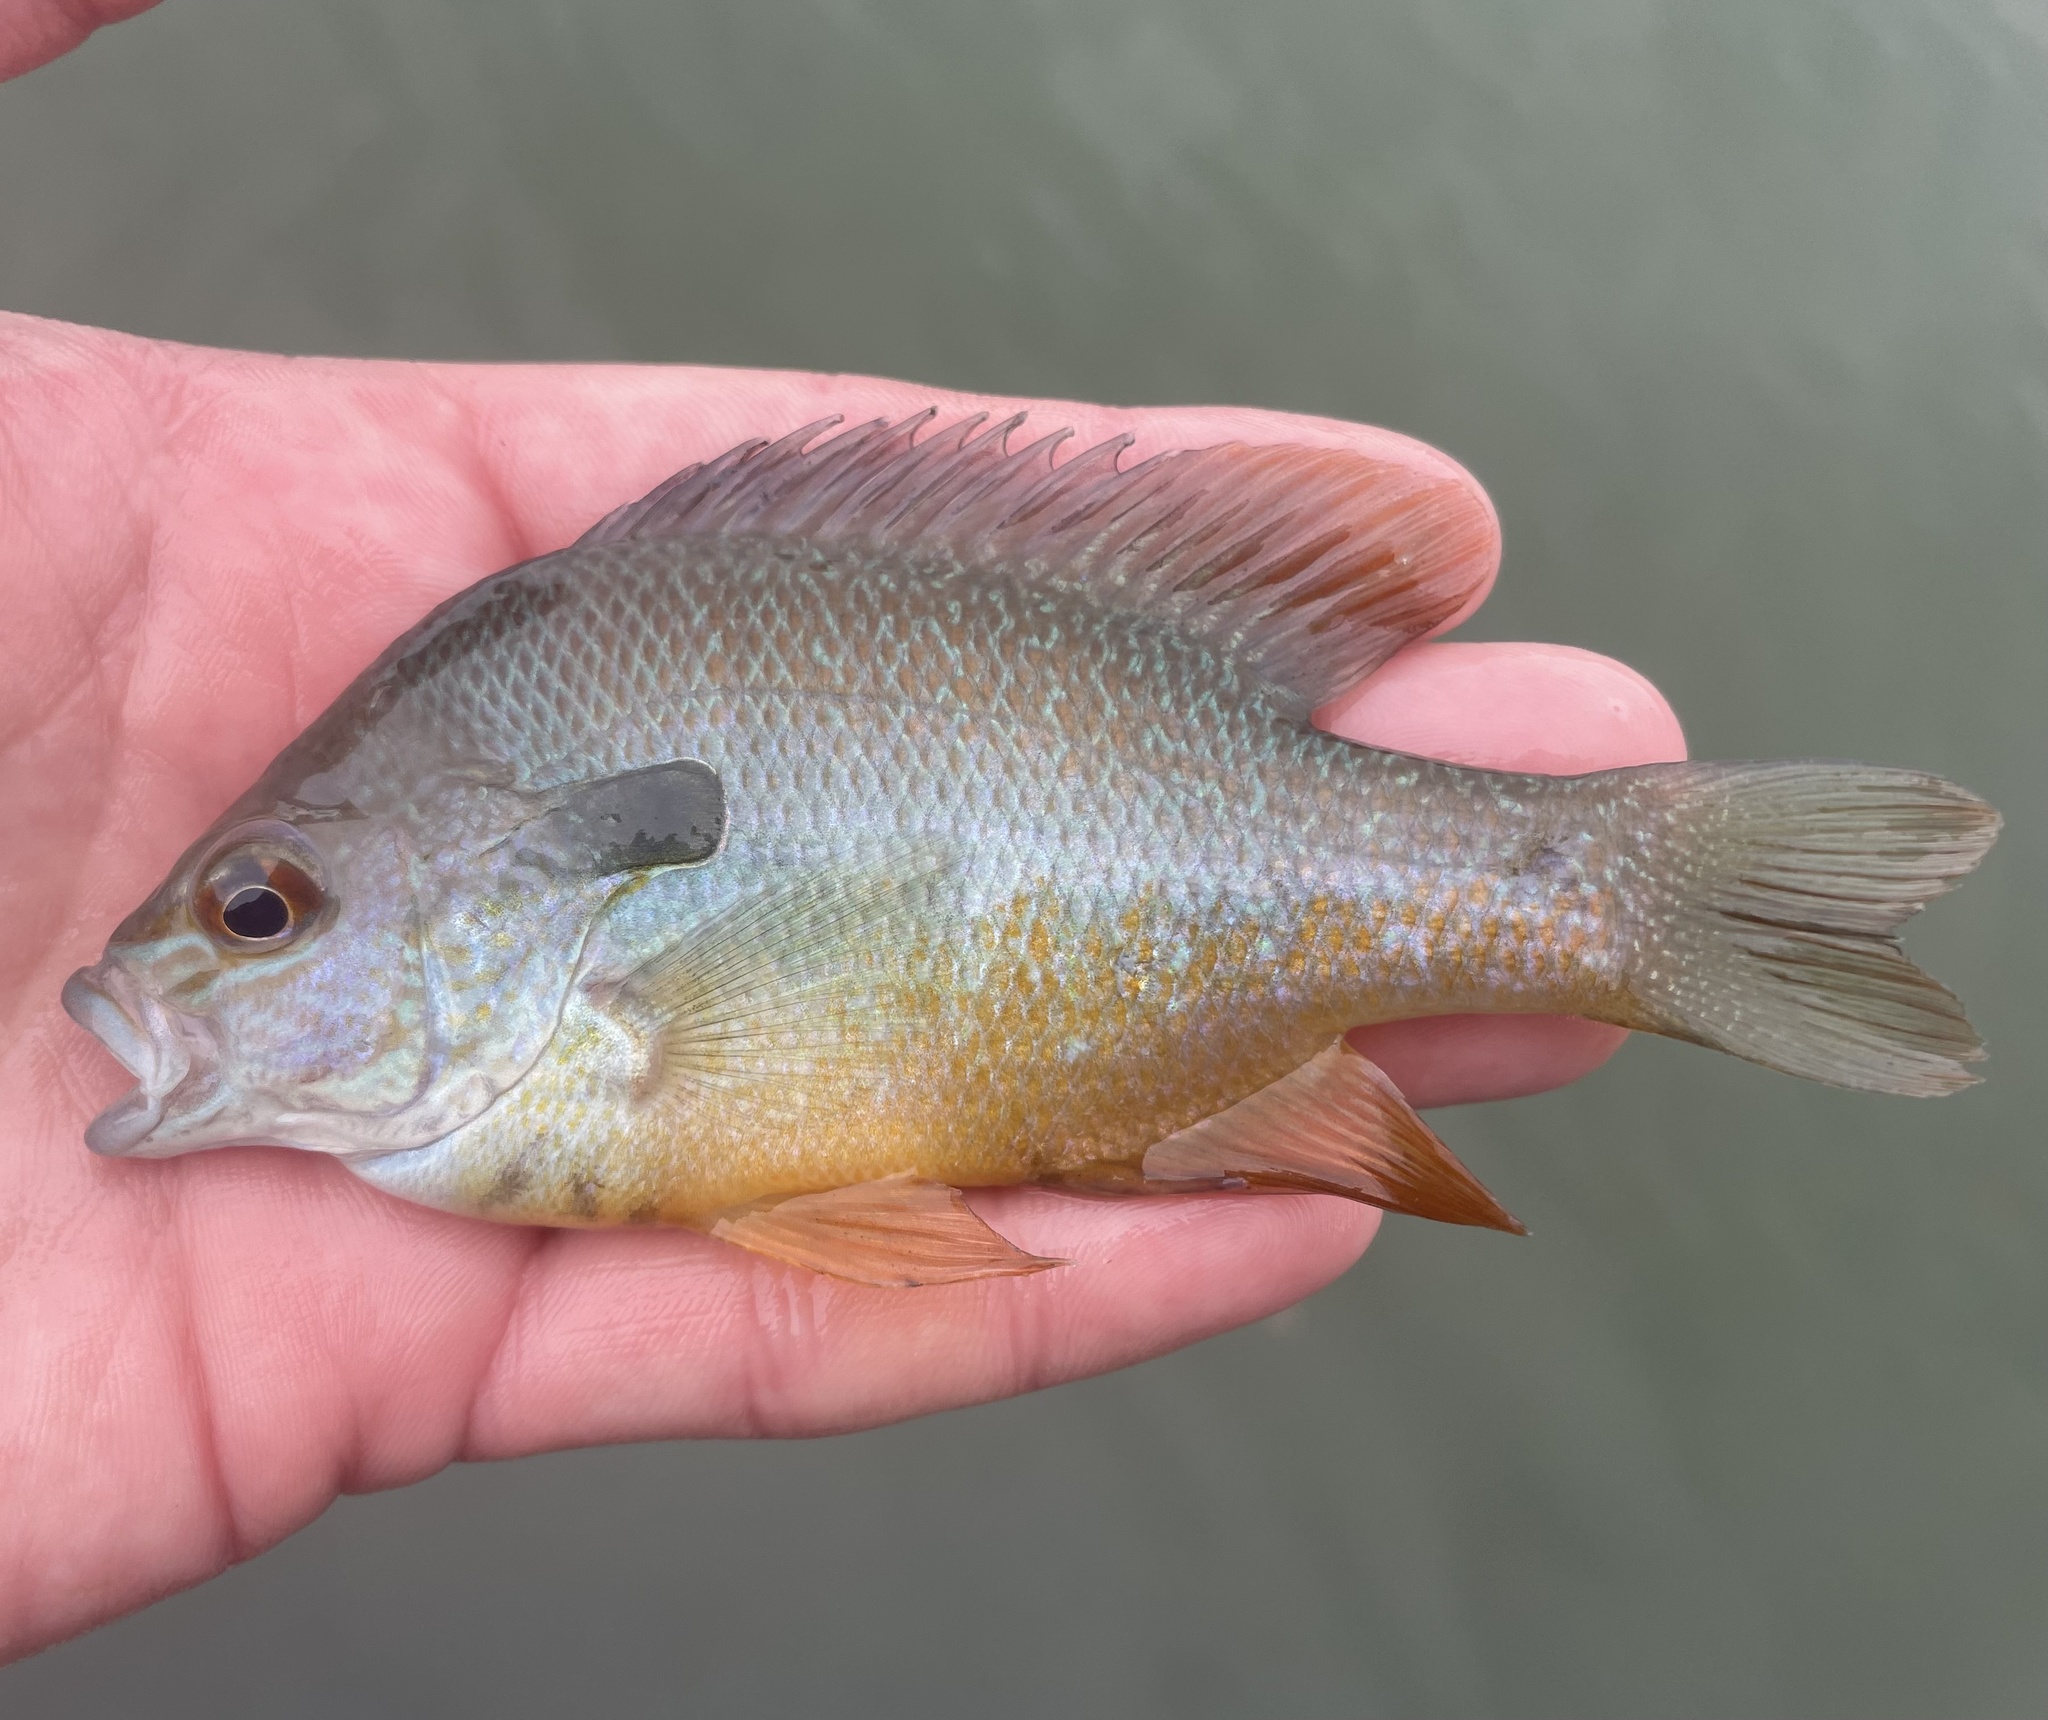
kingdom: Animalia
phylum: Chordata
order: Perciformes
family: Centrarchidae
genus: Lepomis
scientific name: Lepomis aquilensis
